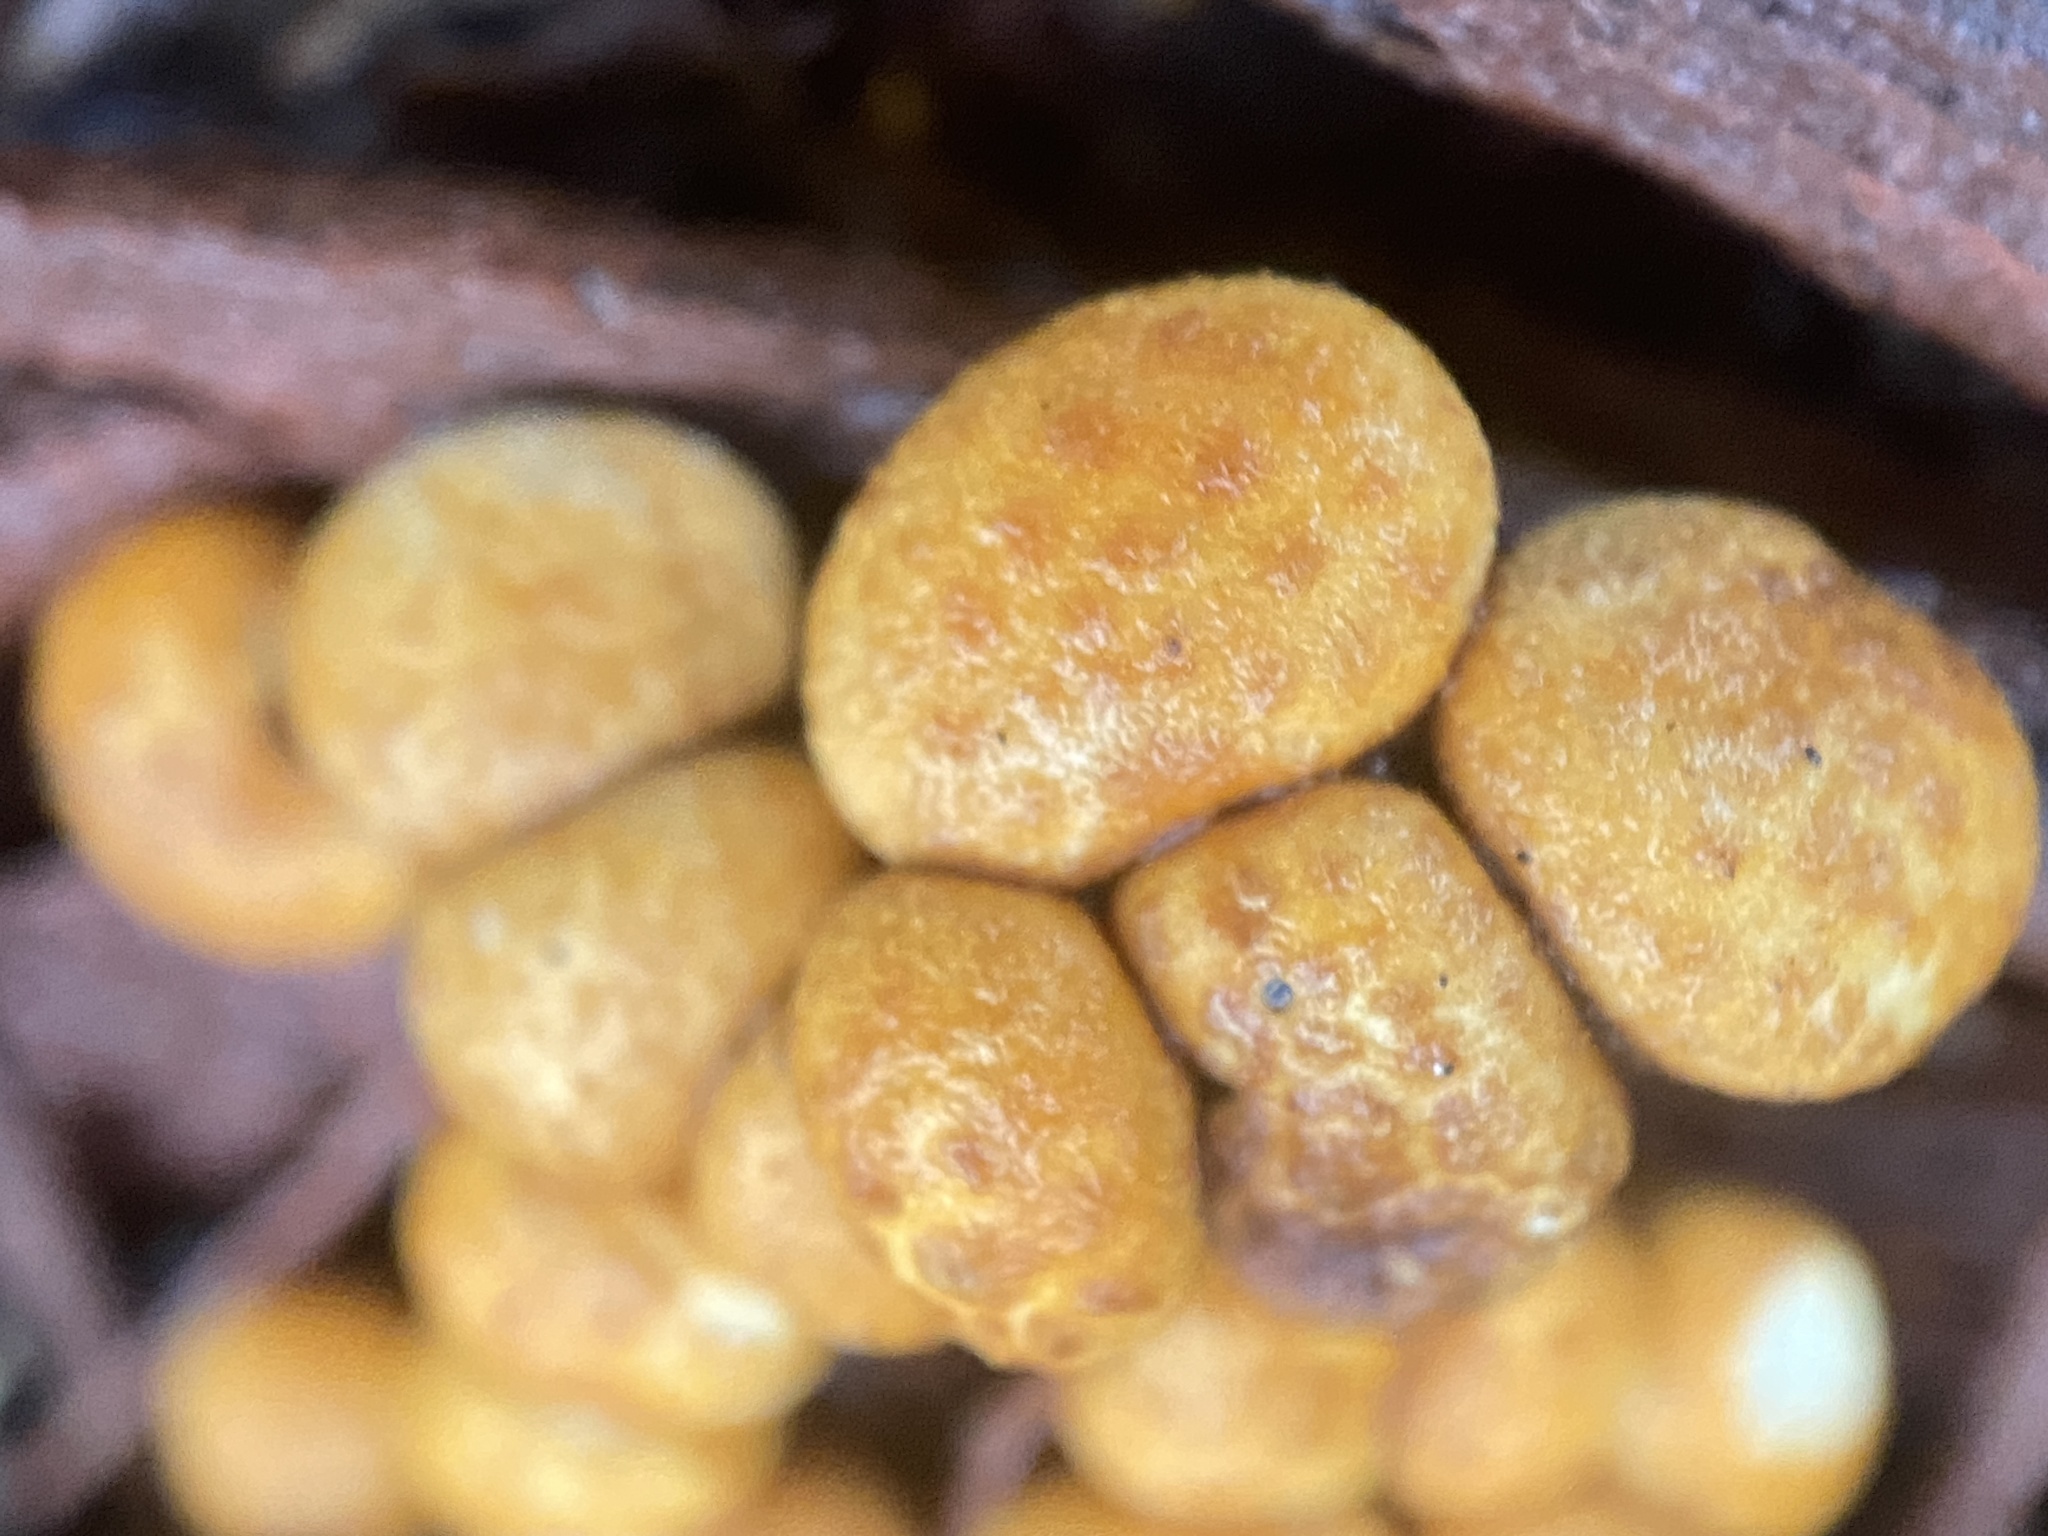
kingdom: Fungi
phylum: Basidiomycota
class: Agaricomycetes
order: Agaricales
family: Nidulariaceae
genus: Crucibulum
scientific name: Crucibulum parvulum
